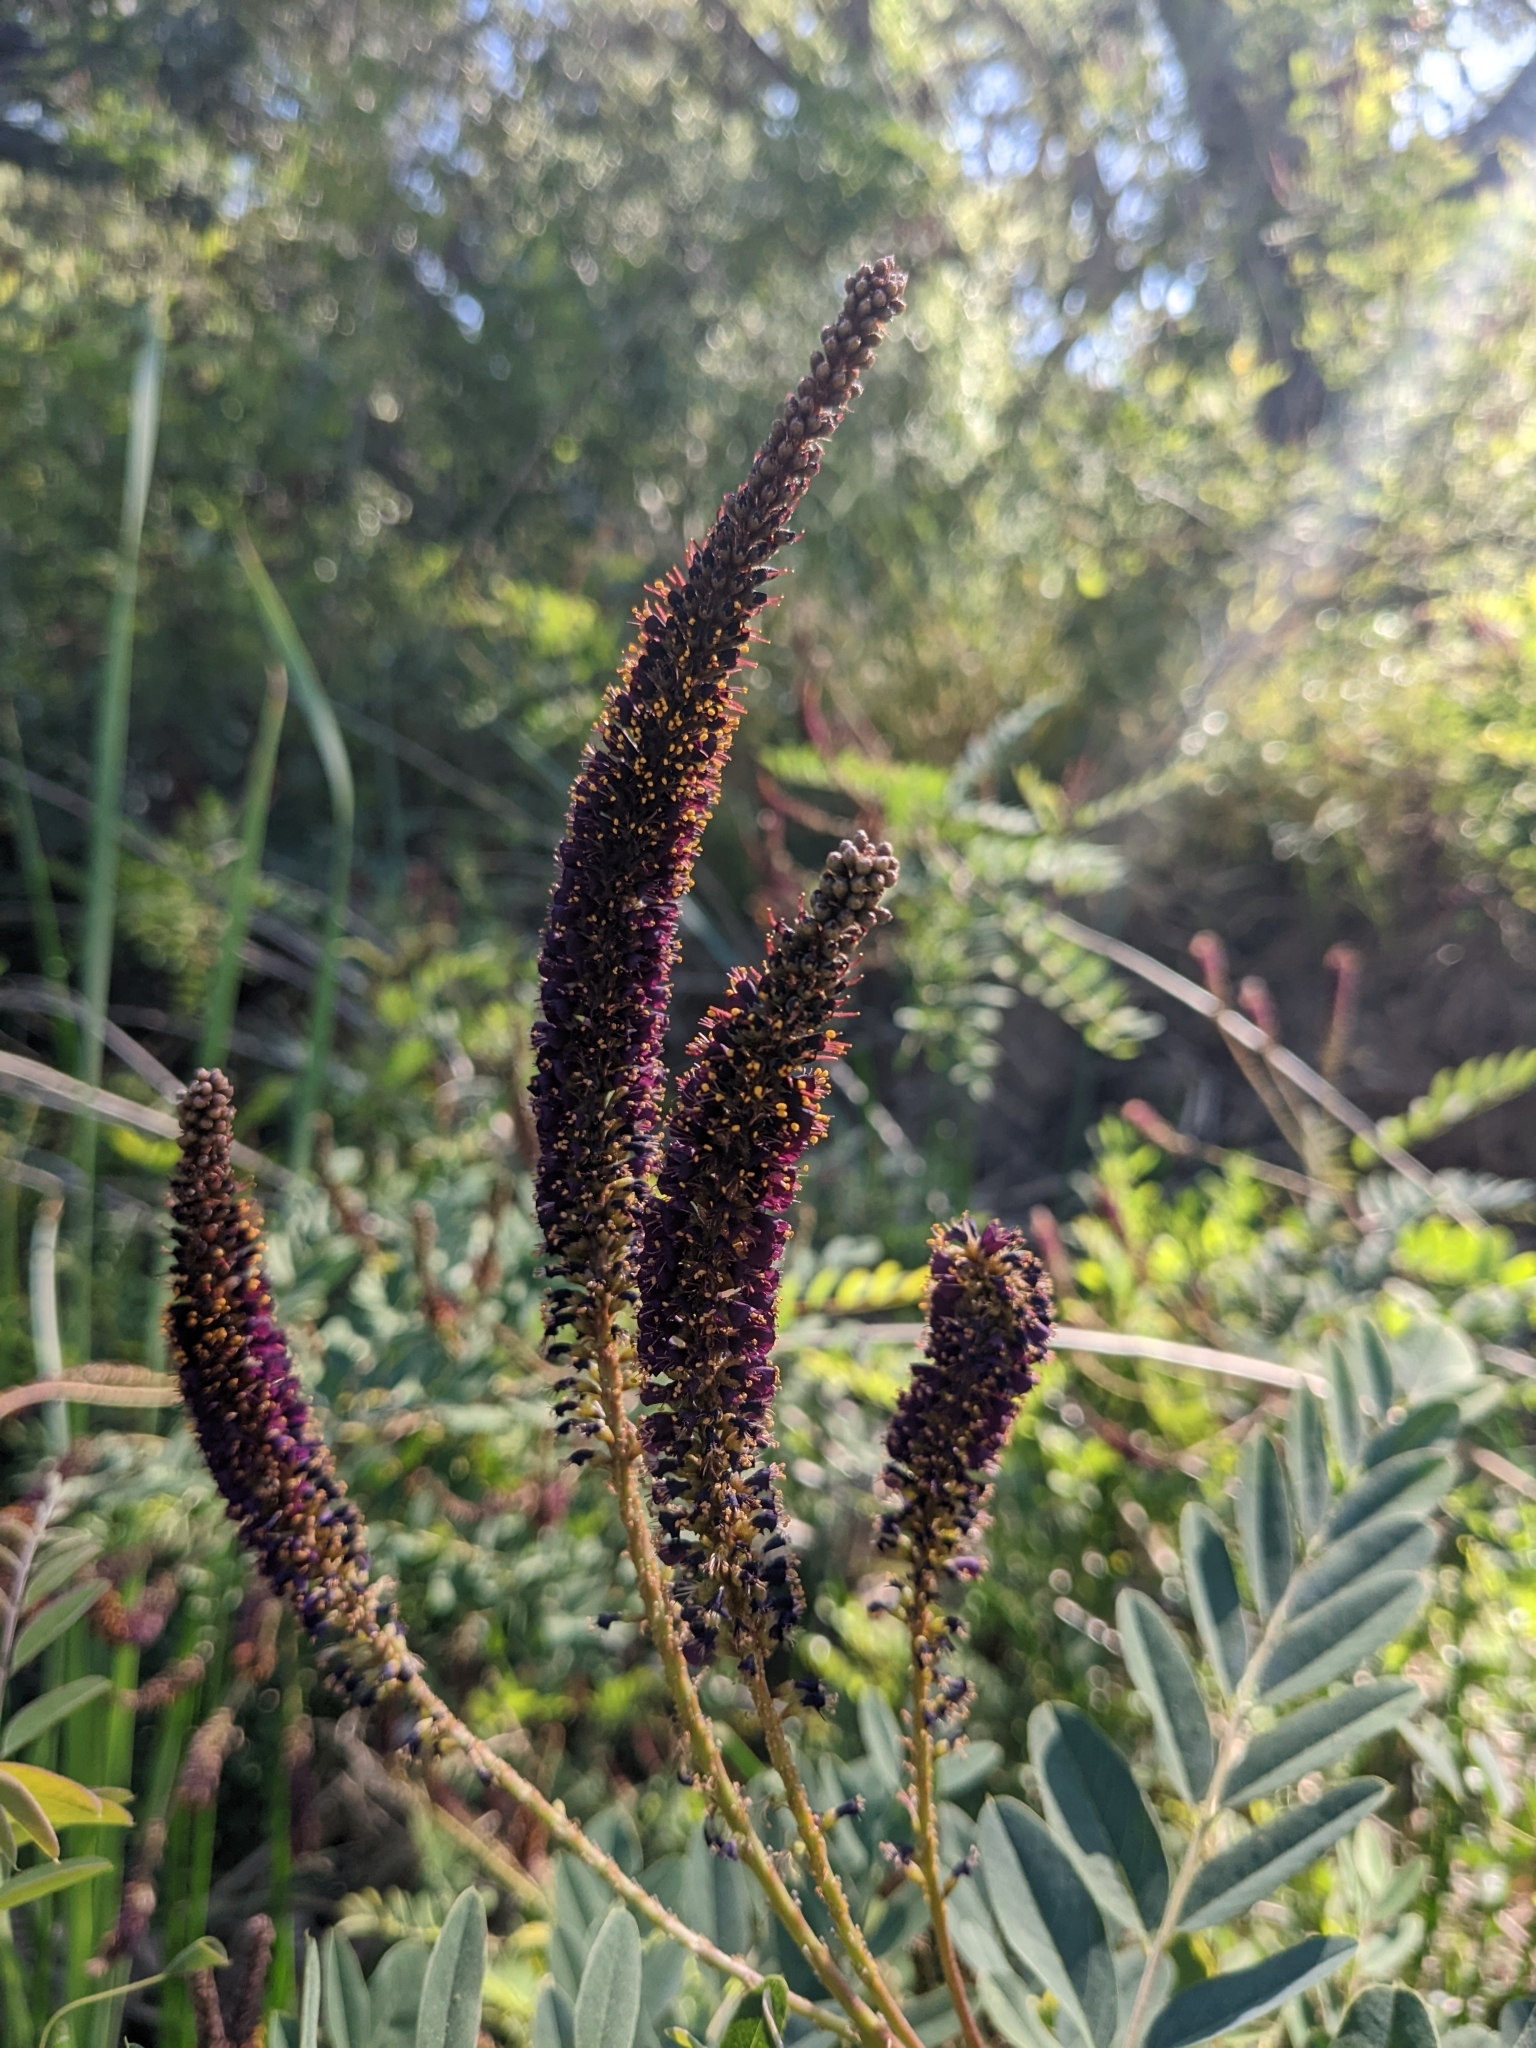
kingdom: Plantae
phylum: Tracheophyta
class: Magnoliopsida
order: Fabales
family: Fabaceae
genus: Amorpha
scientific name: Amorpha fruticosa
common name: False indigo
